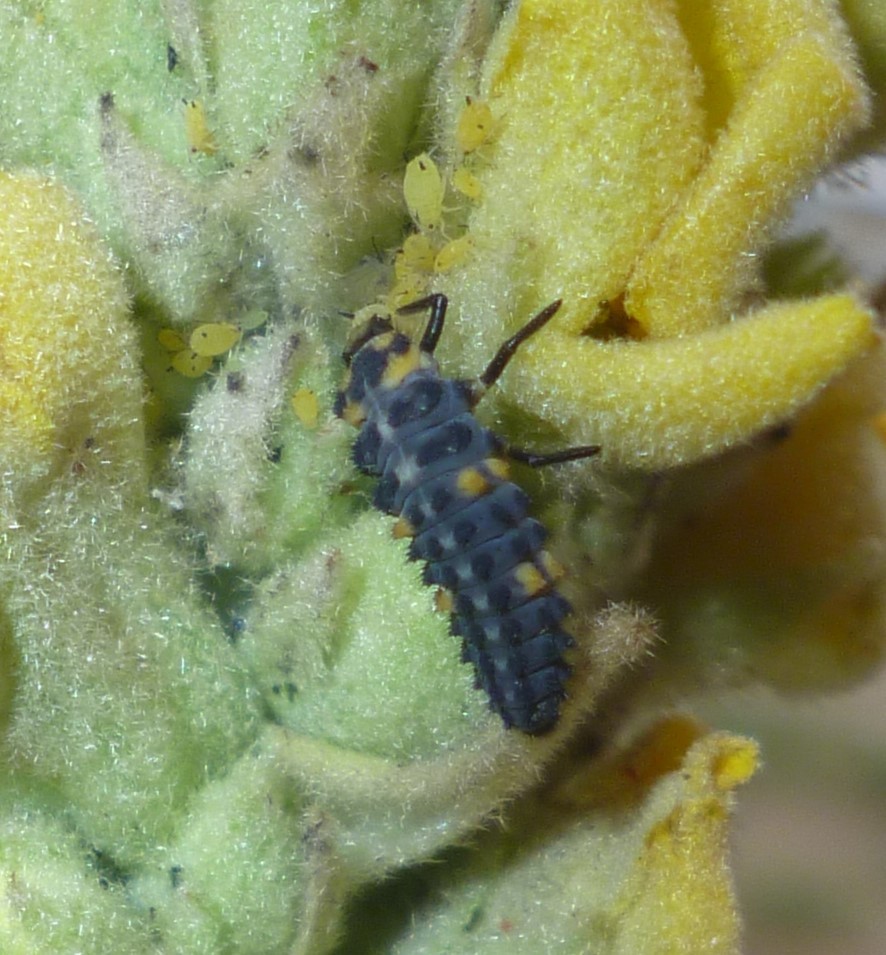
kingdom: Animalia
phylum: Arthropoda
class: Insecta
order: Coleoptera
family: Coccinellidae
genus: Coccinella
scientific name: Coccinella septempunctata
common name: Sevenspotted lady beetle
